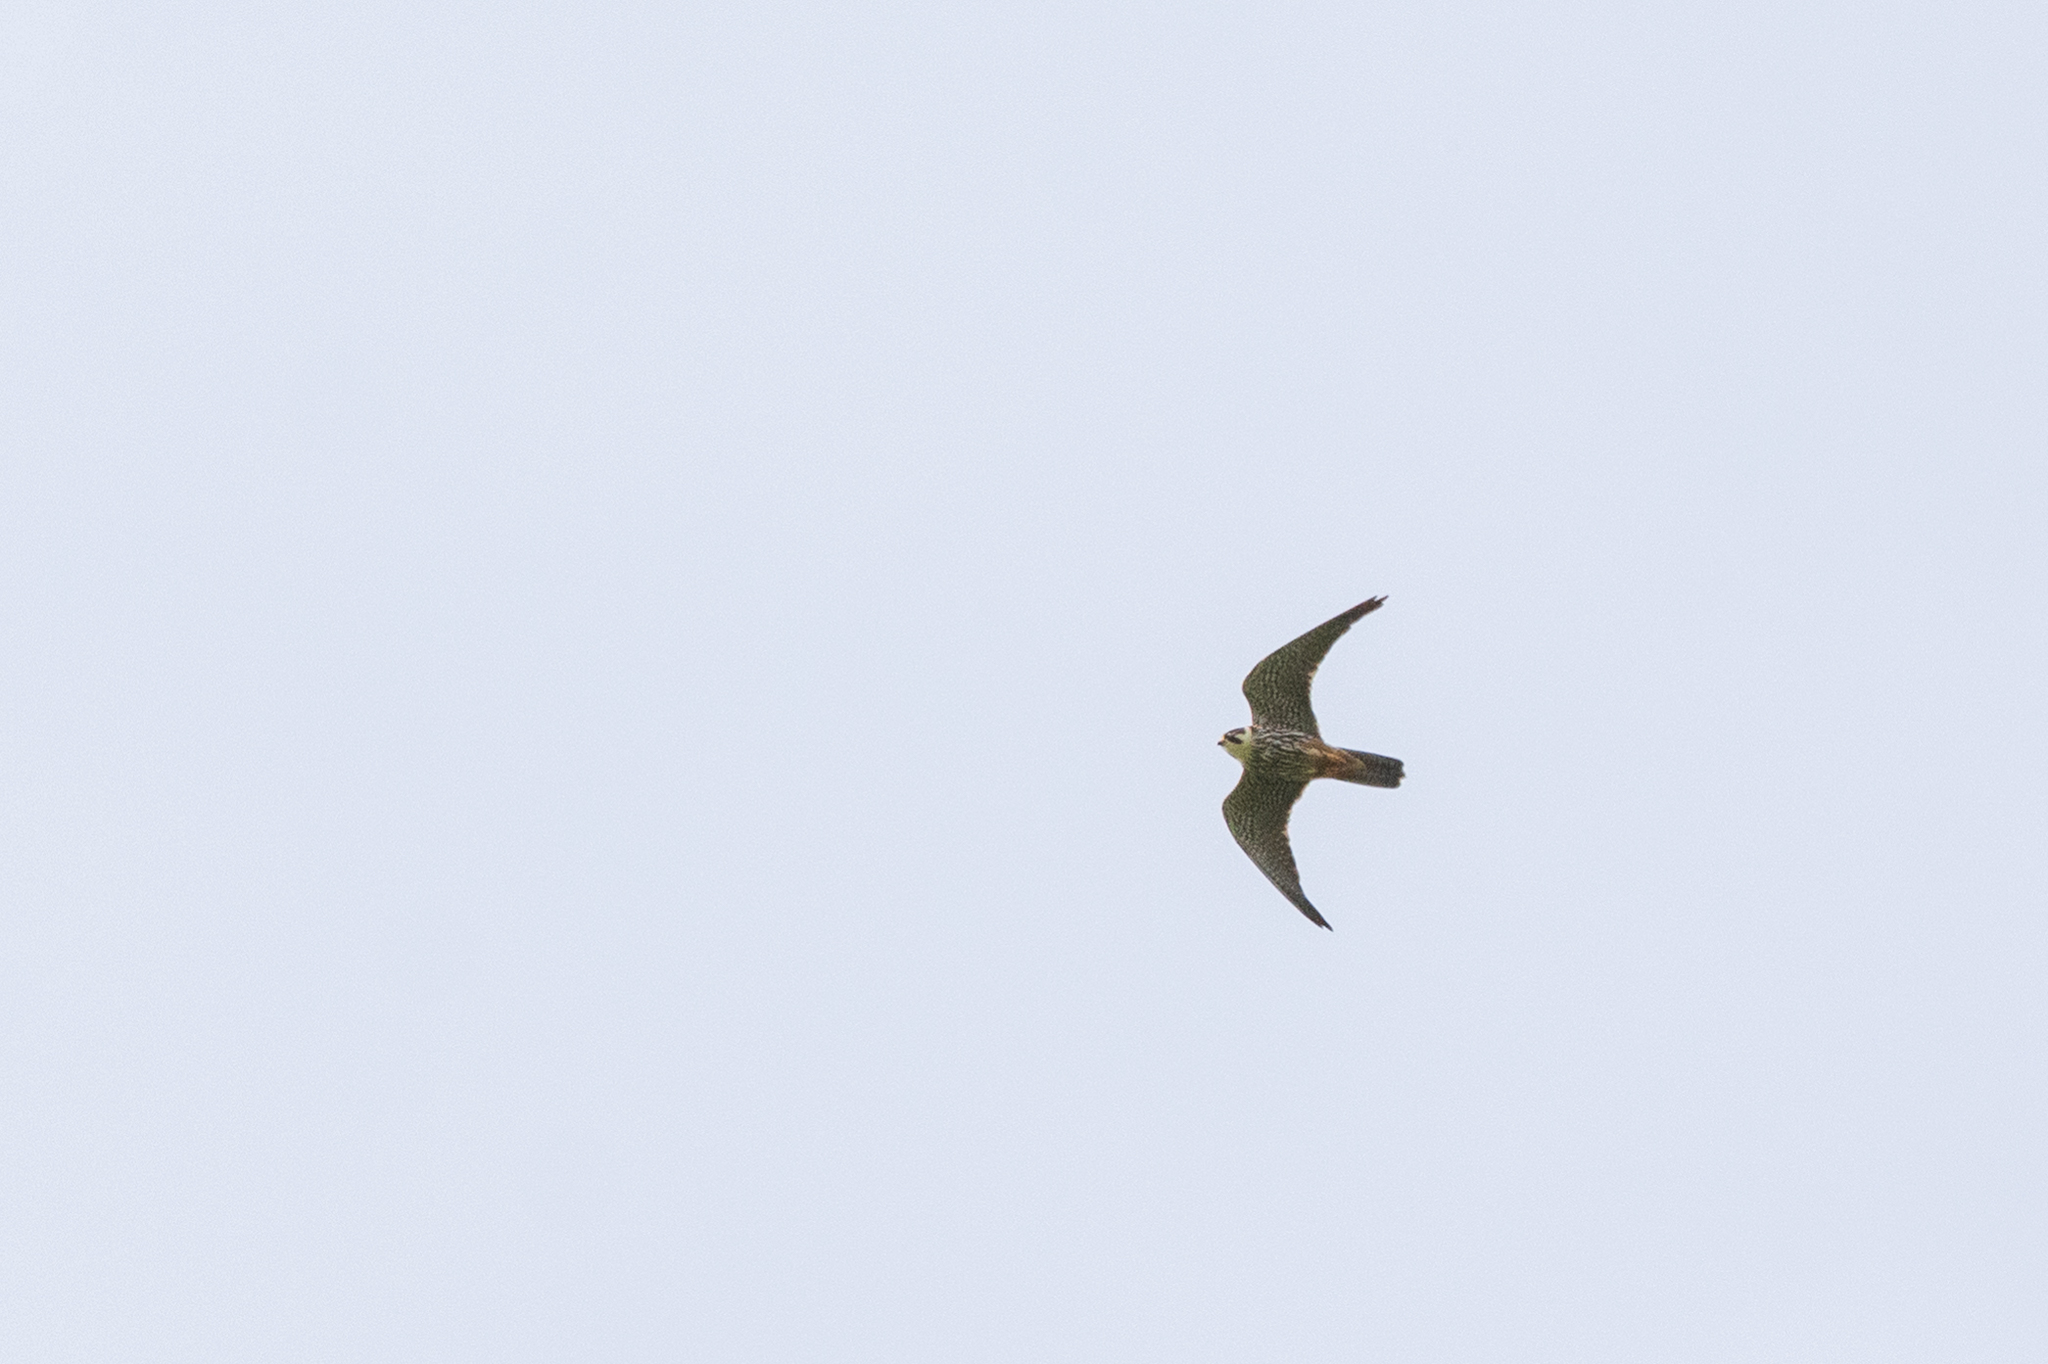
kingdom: Animalia
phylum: Chordata
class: Aves
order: Falconiformes
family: Falconidae
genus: Falco
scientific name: Falco subbuteo
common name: Eurasian hobby
